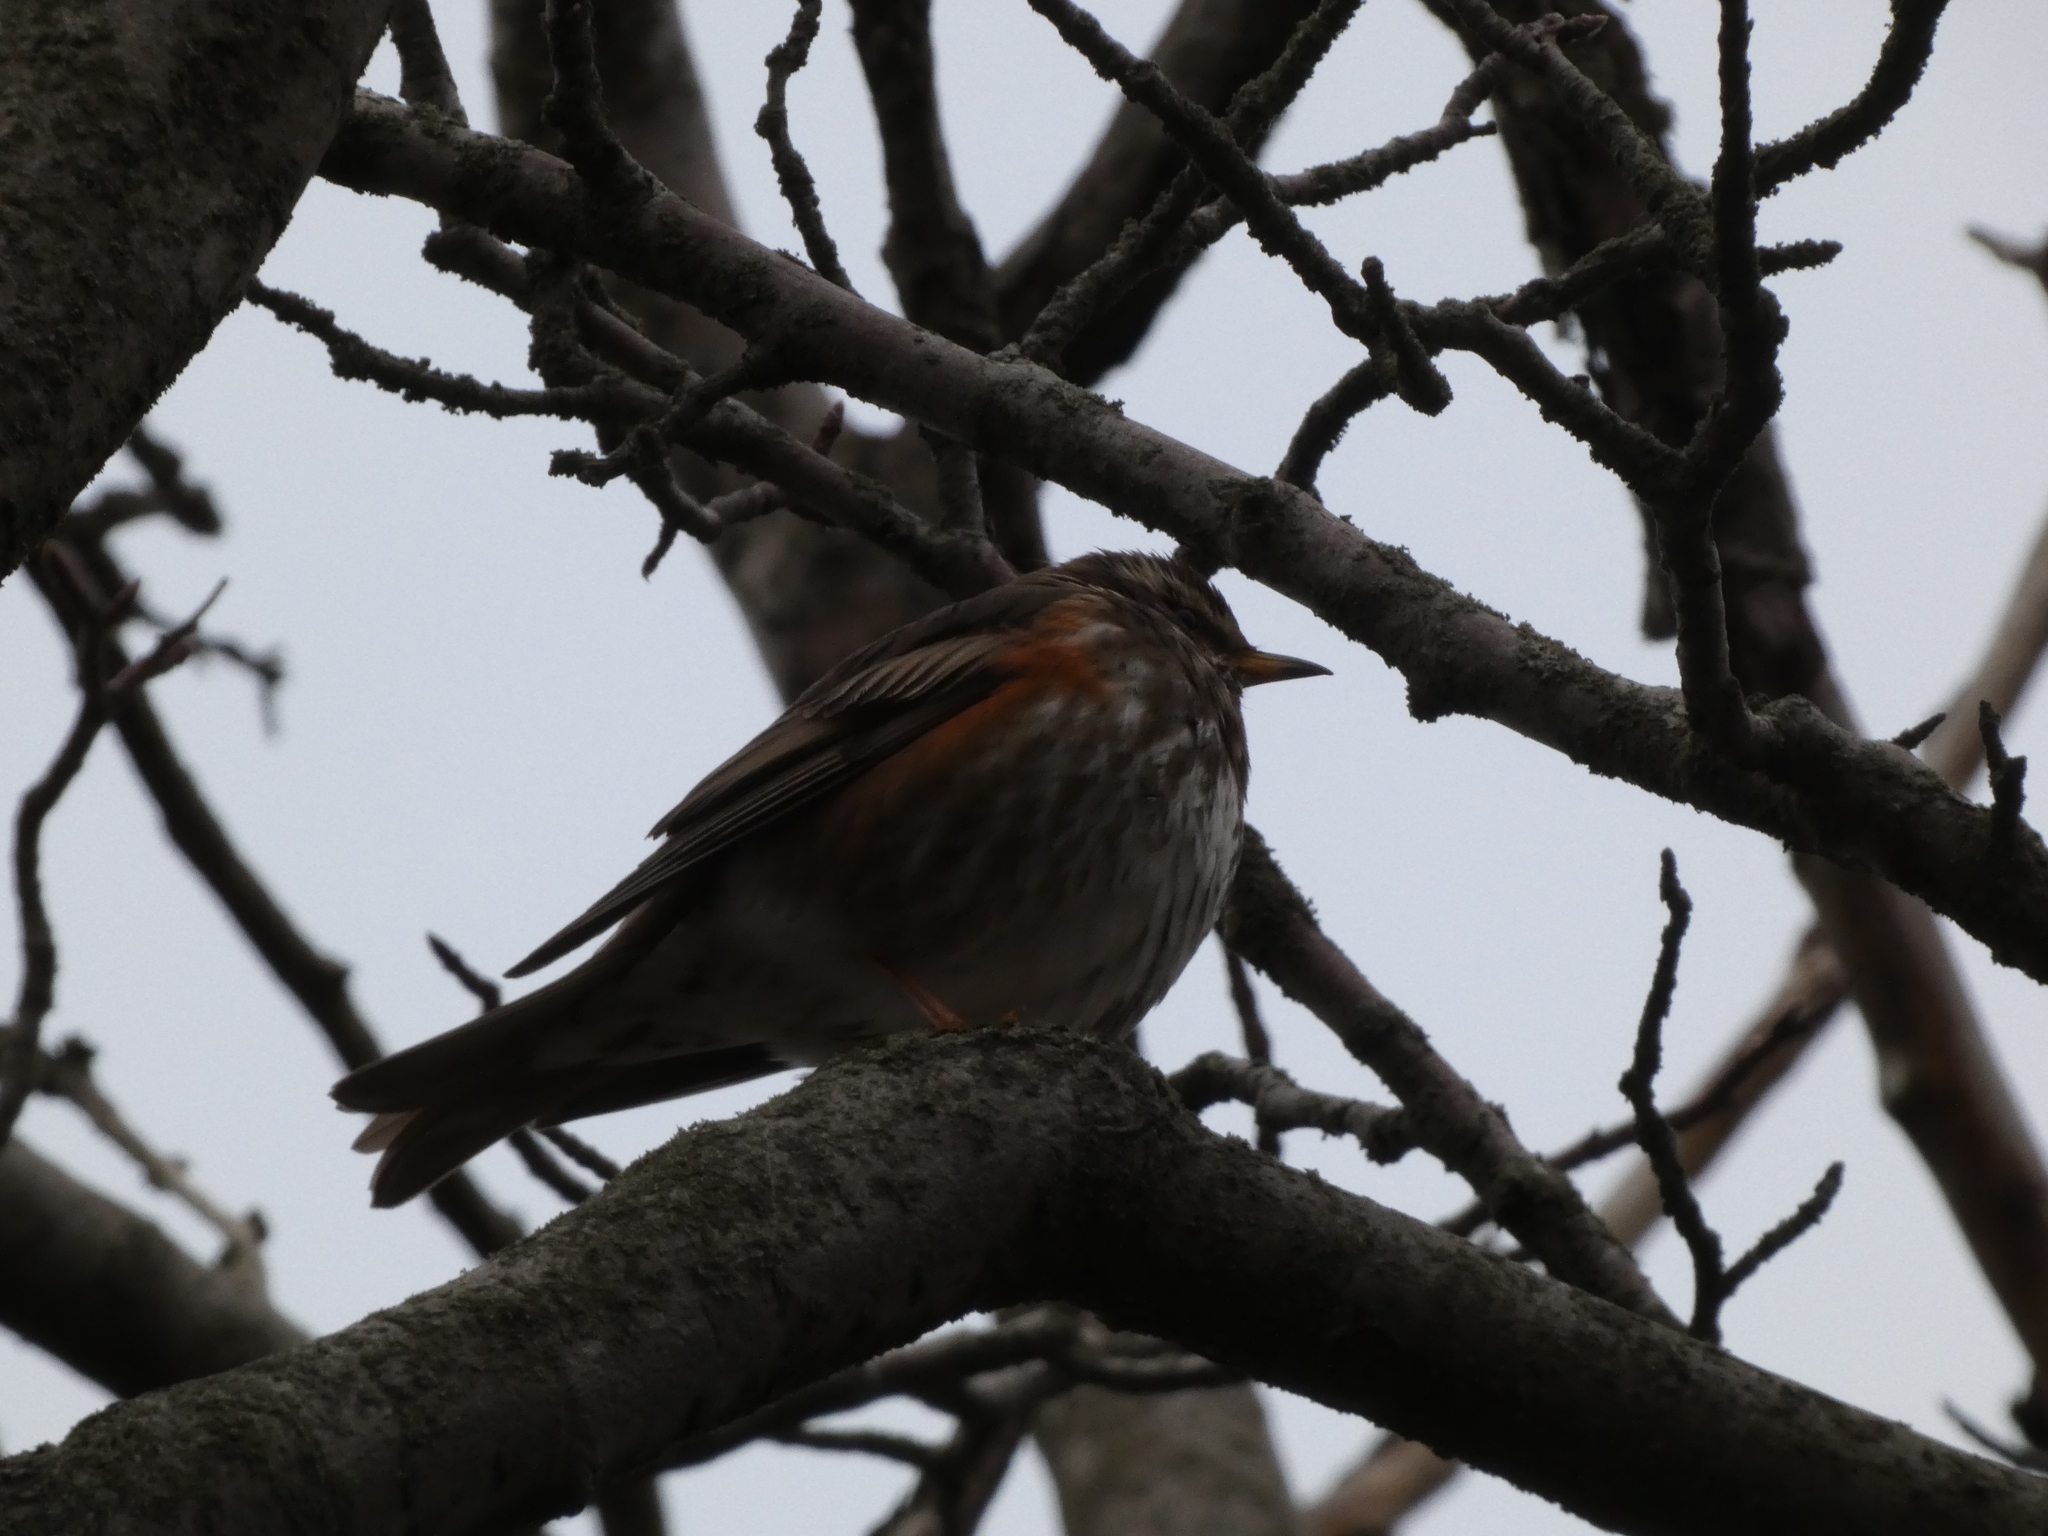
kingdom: Animalia
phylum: Chordata
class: Aves
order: Passeriformes
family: Turdidae
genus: Turdus
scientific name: Turdus iliacus
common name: Redwing
